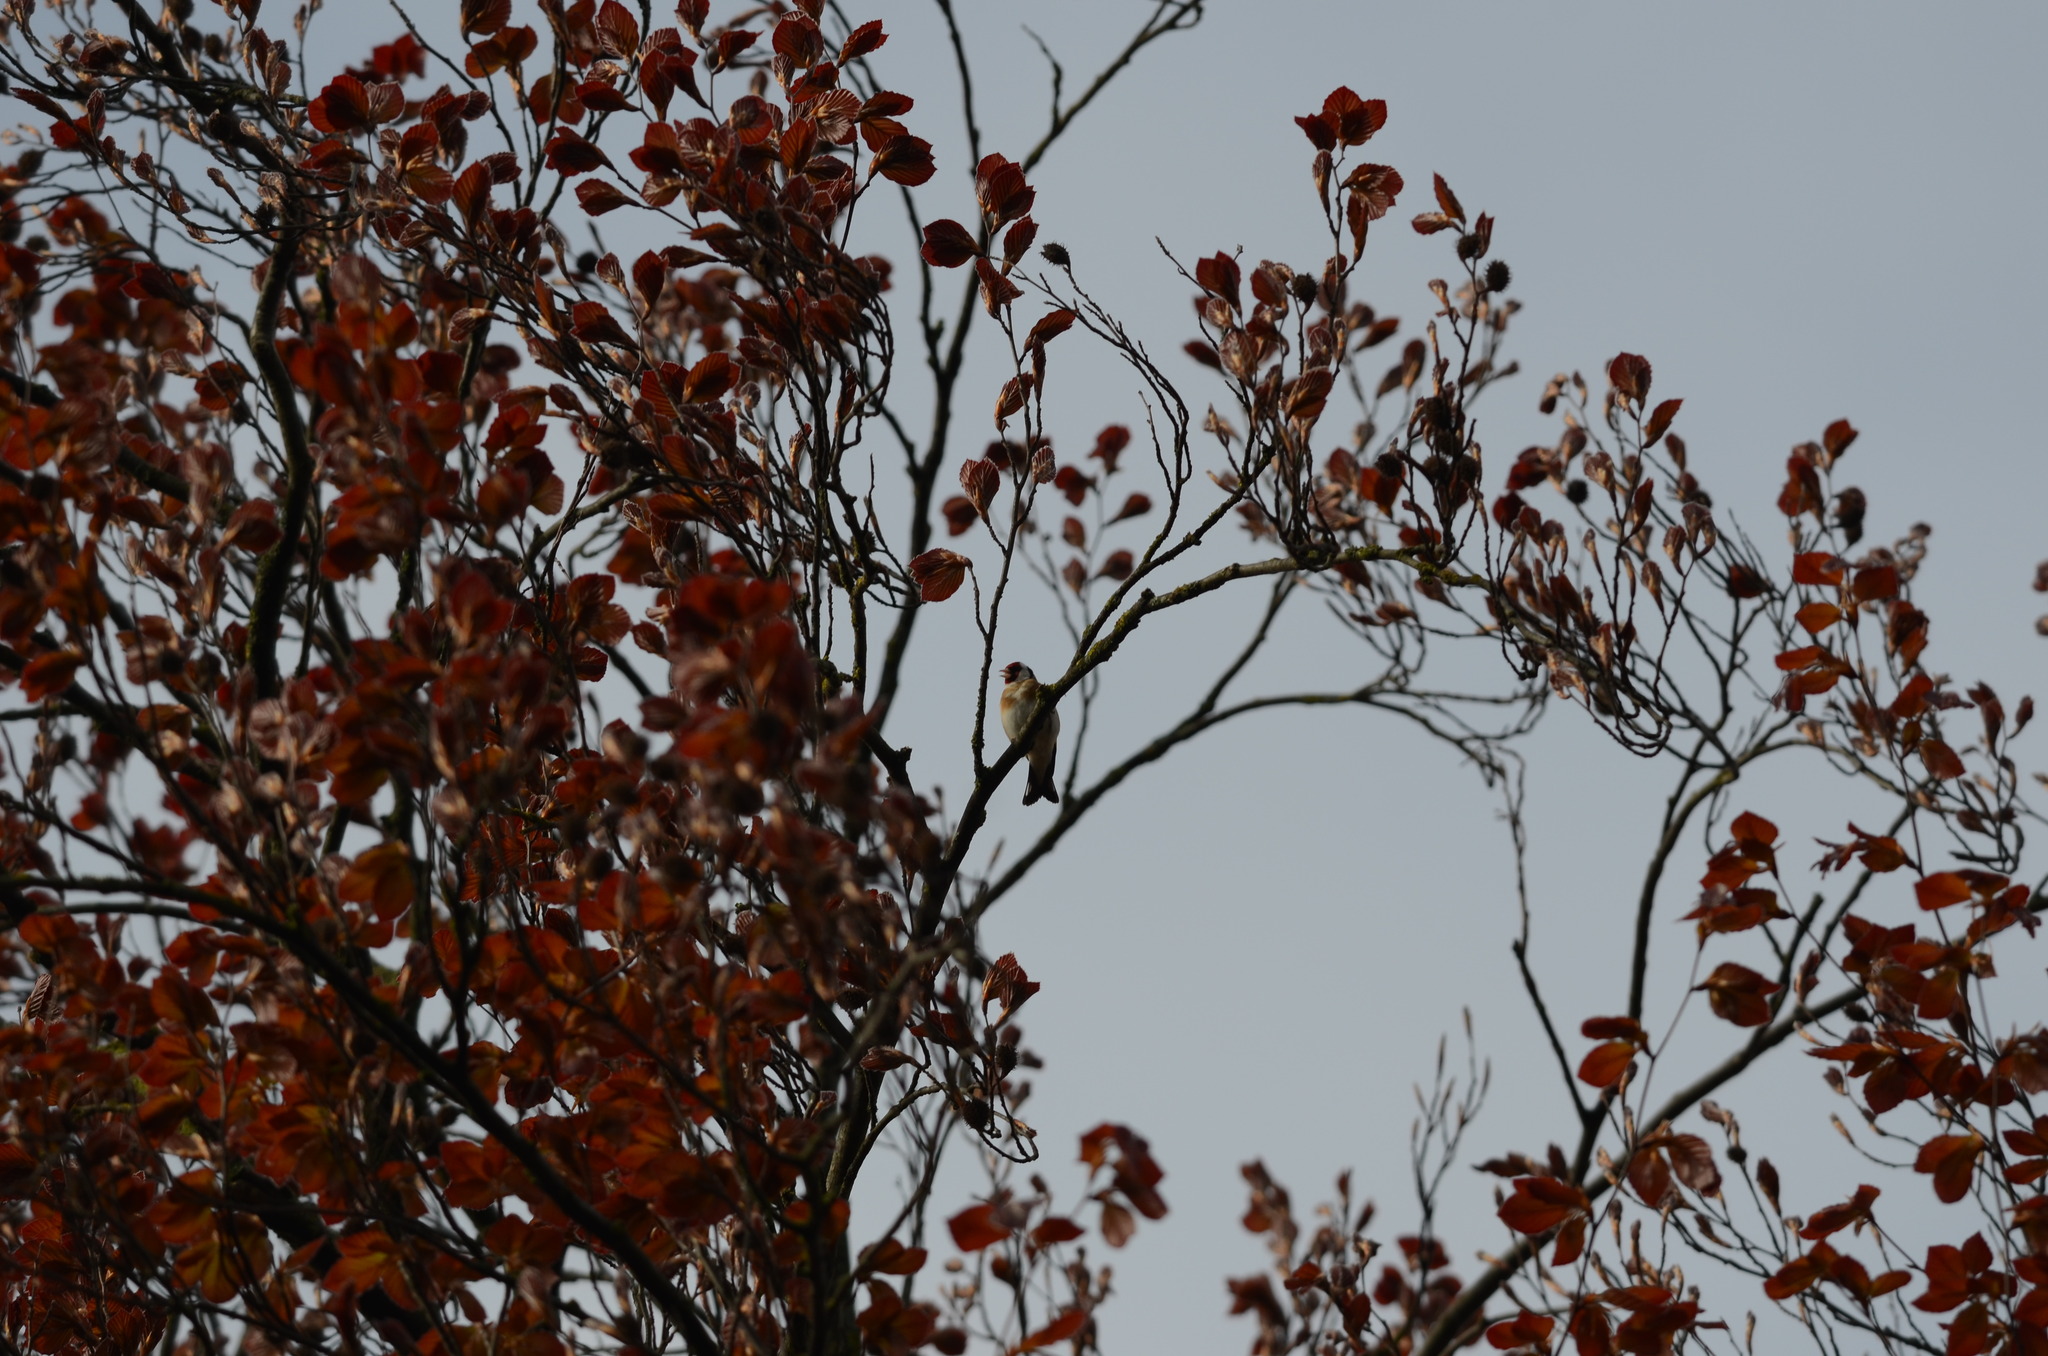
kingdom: Animalia
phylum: Chordata
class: Aves
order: Passeriformes
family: Fringillidae
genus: Carduelis
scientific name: Carduelis carduelis
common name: European goldfinch
